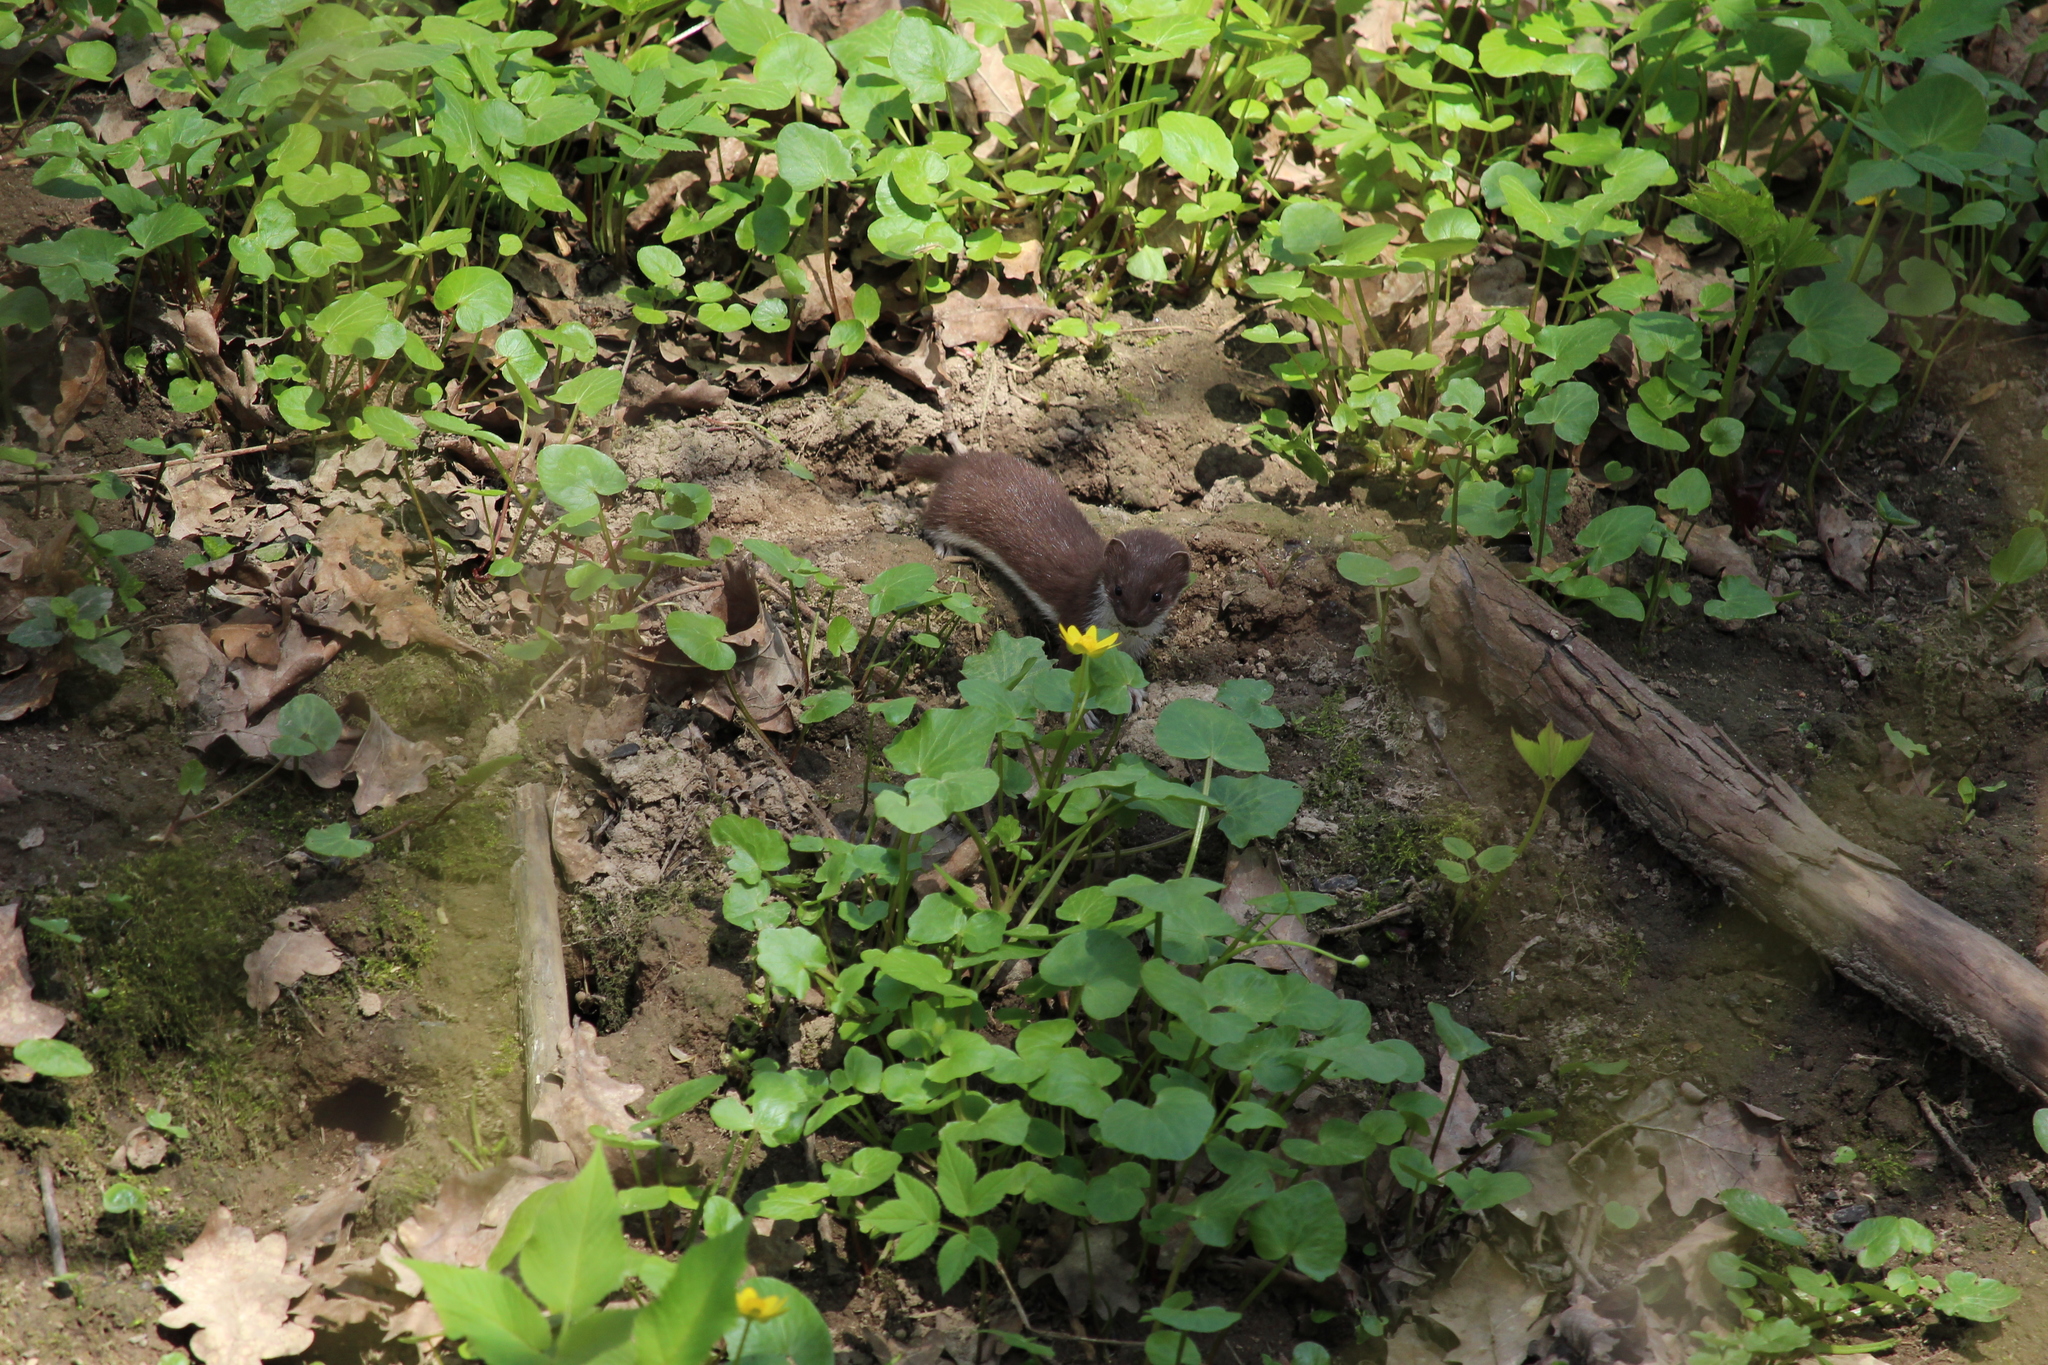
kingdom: Animalia
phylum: Chordata
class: Mammalia
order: Carnivora
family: Mustelidae
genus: Mustela
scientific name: Mustela nivalis
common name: Least weasel
